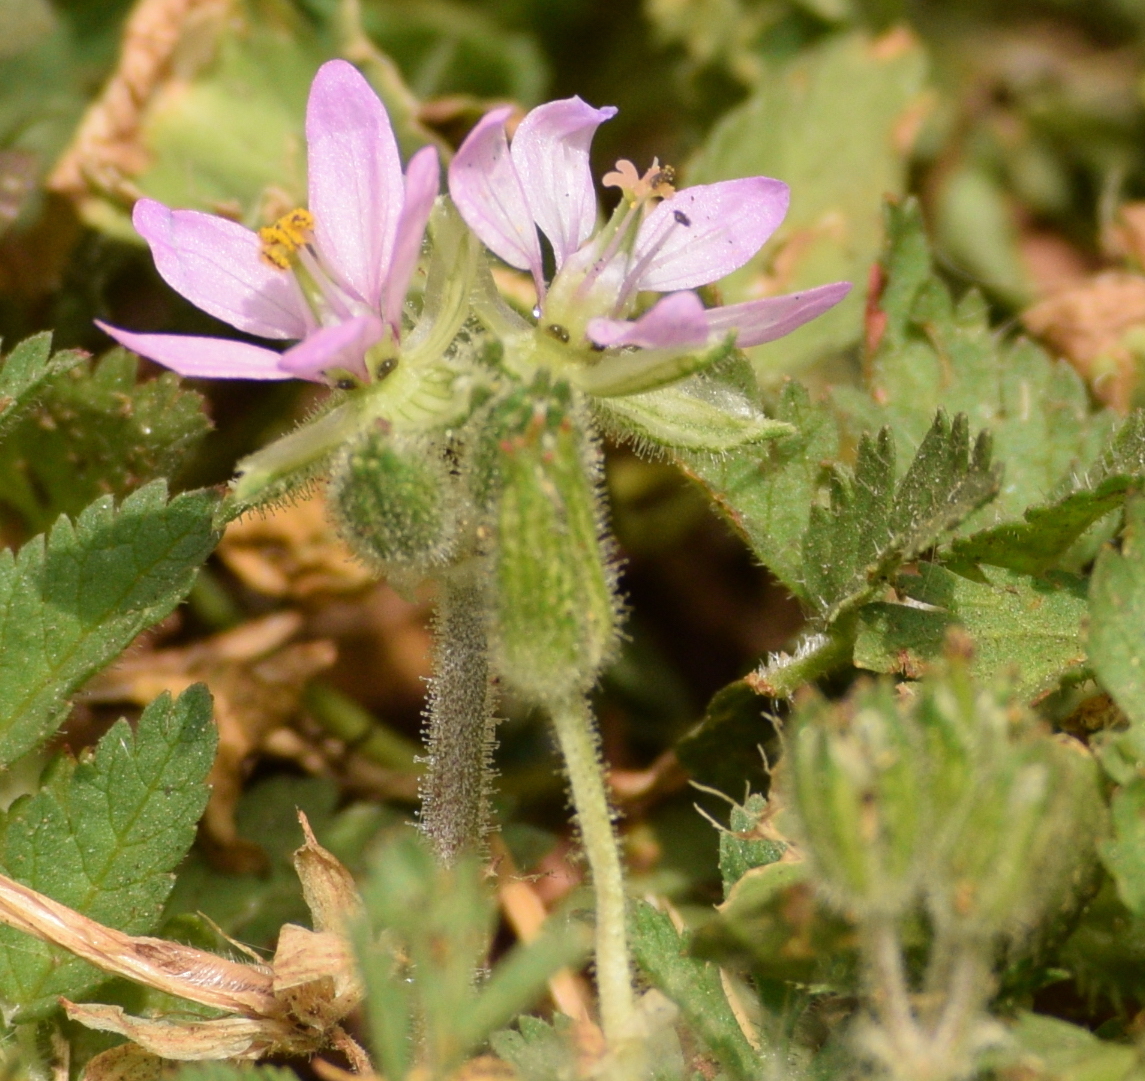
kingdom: Plantae
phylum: Tracheophyta
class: Magnoliopsida
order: Geraniales
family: Geraniaceae
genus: Erodium
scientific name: Erodium moschatum
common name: Musk stork's-bill
